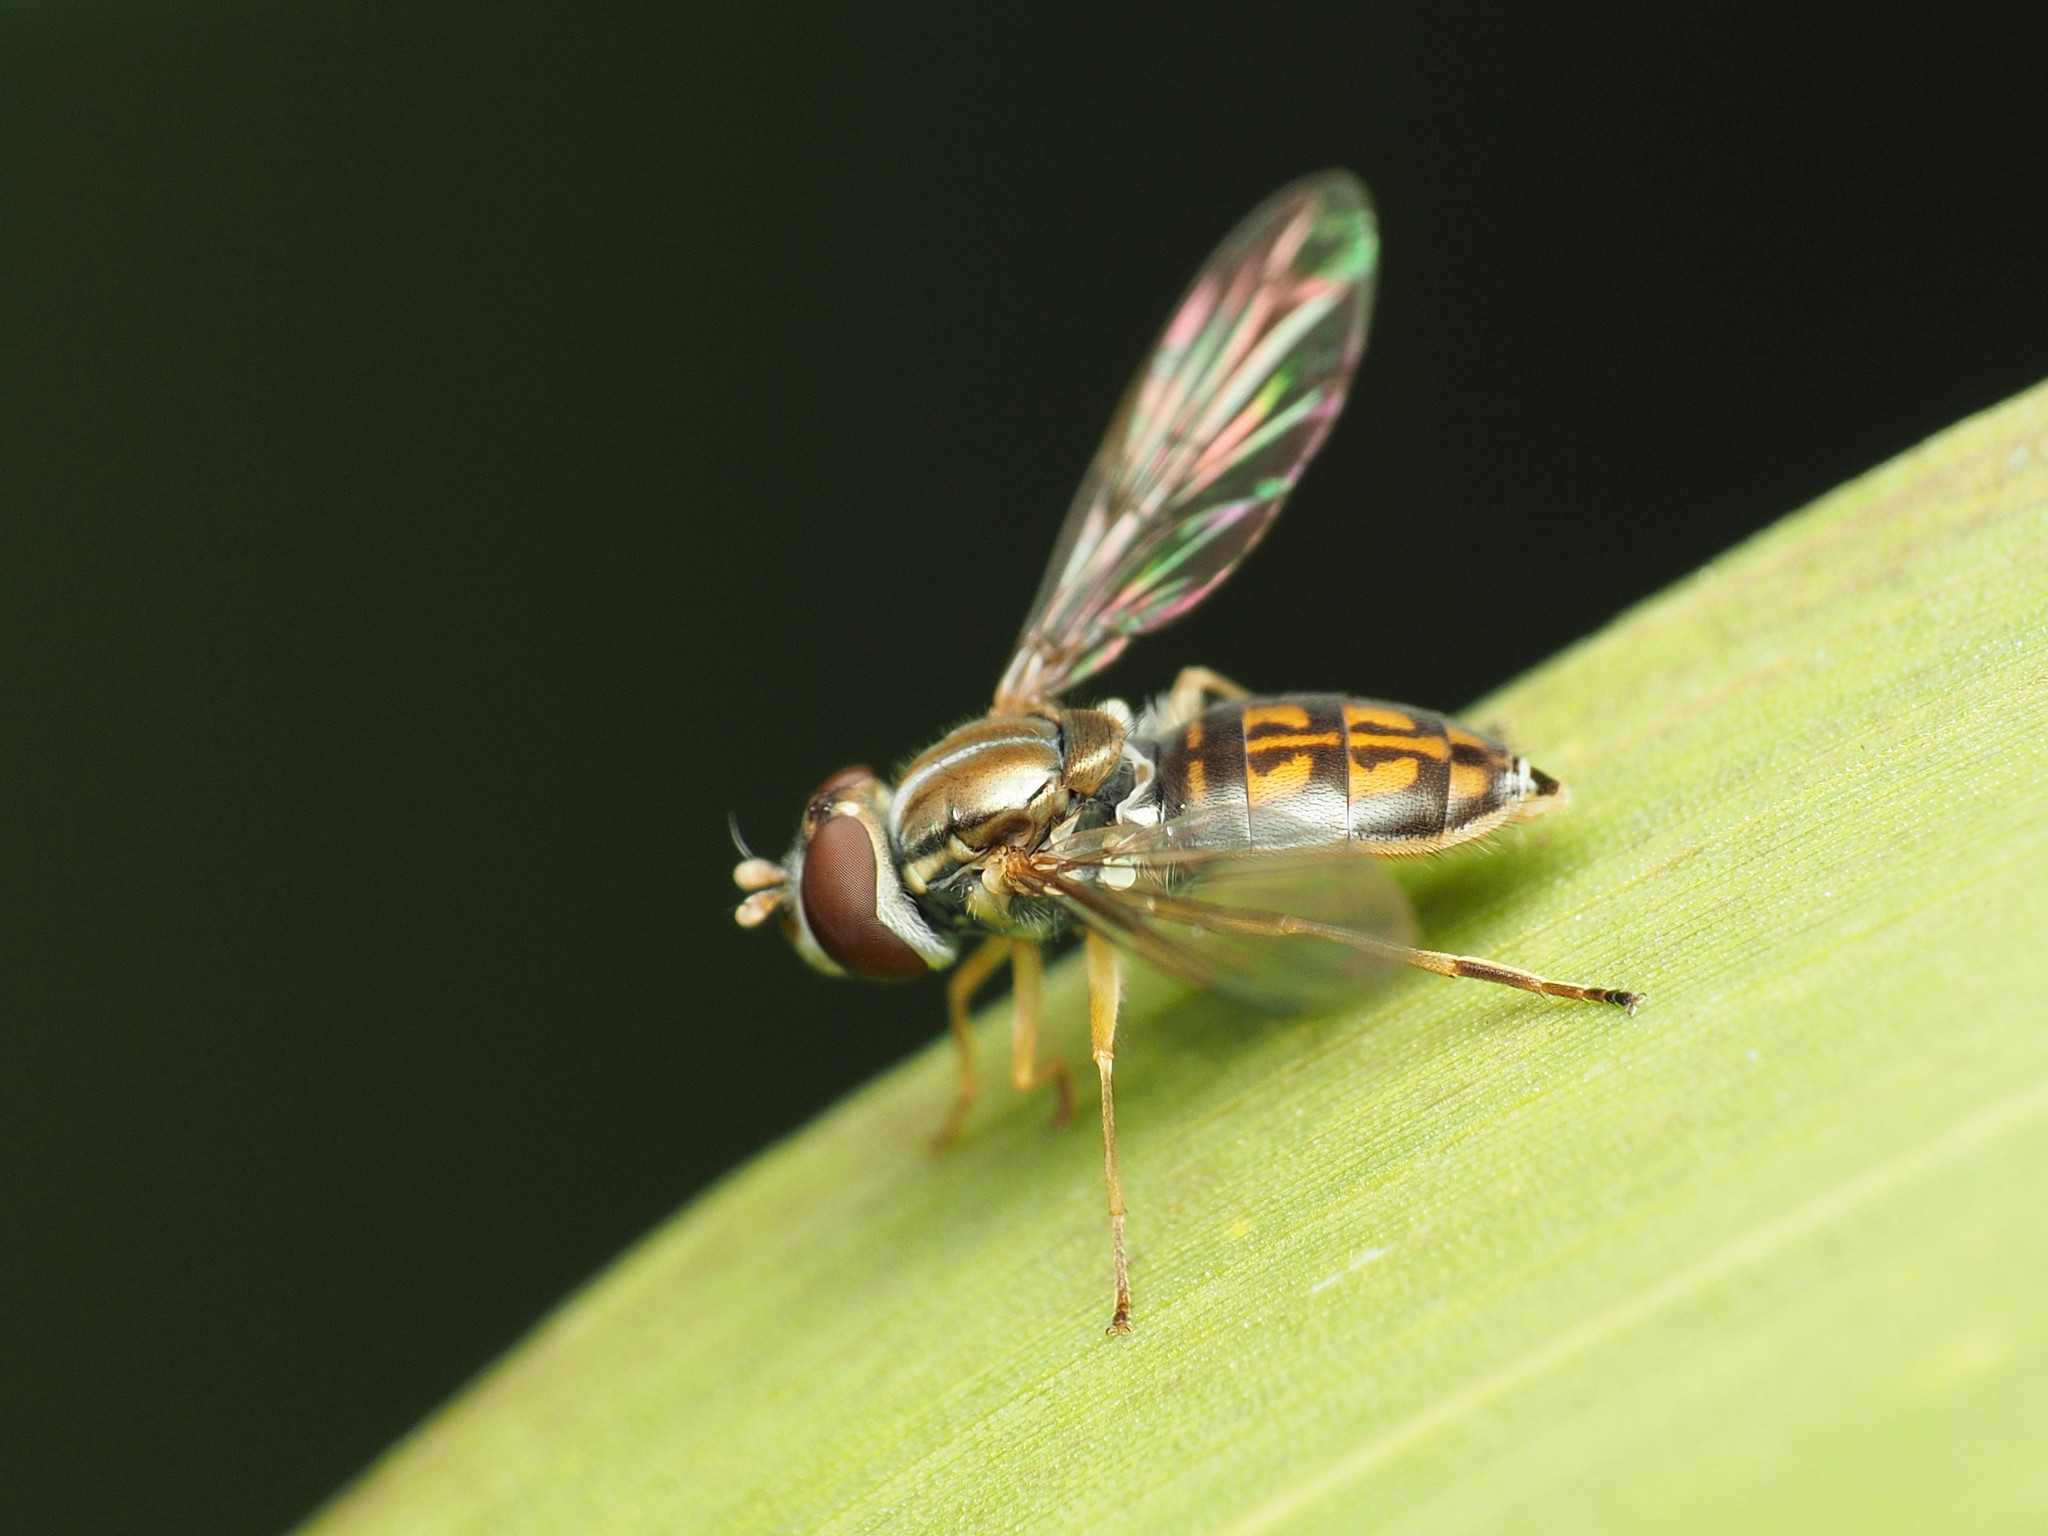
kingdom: Animalia
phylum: Arthropoda
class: Insecta
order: Diptera
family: Syrphidae
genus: Toxomerus
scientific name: Toxomerus marginatus
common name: Syrphid fly
